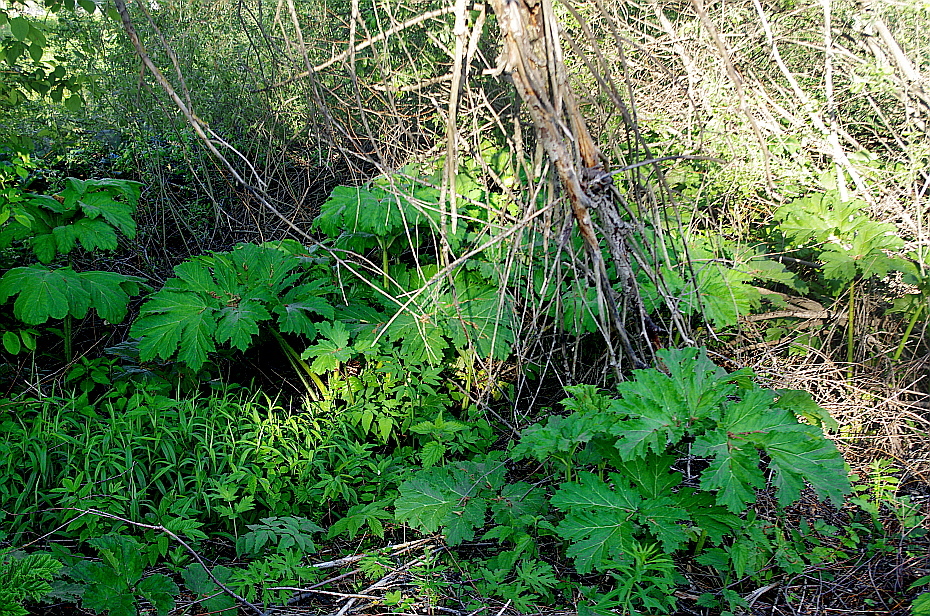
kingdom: Plantae
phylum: Tracheophyta
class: Magnoliopsida
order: Apiales
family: Apiaceae
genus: Heracleum
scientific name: Heracleum sosnowskyi
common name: Sosnowsky's hogweed
